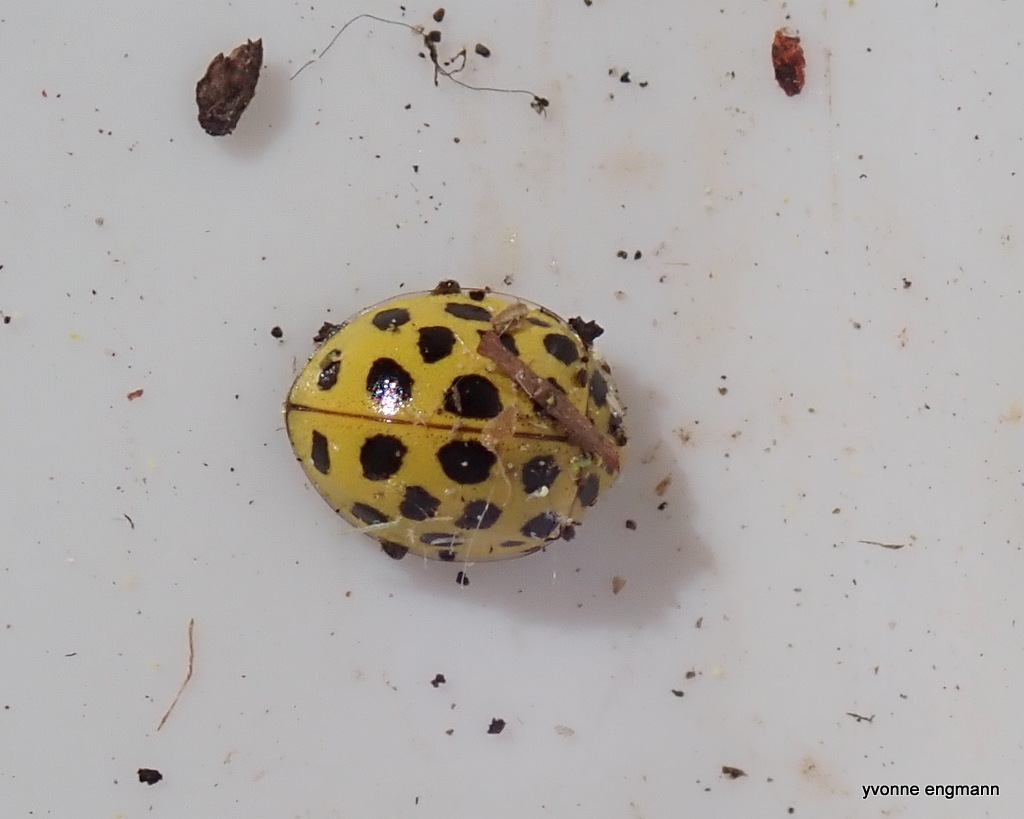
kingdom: Animalia
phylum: Arthropoda
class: Insecta
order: Coleoptera
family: Coccinellidae
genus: Psyllobora
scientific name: Psyllobora vigintiduopunctata
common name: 22-spot ladybird
